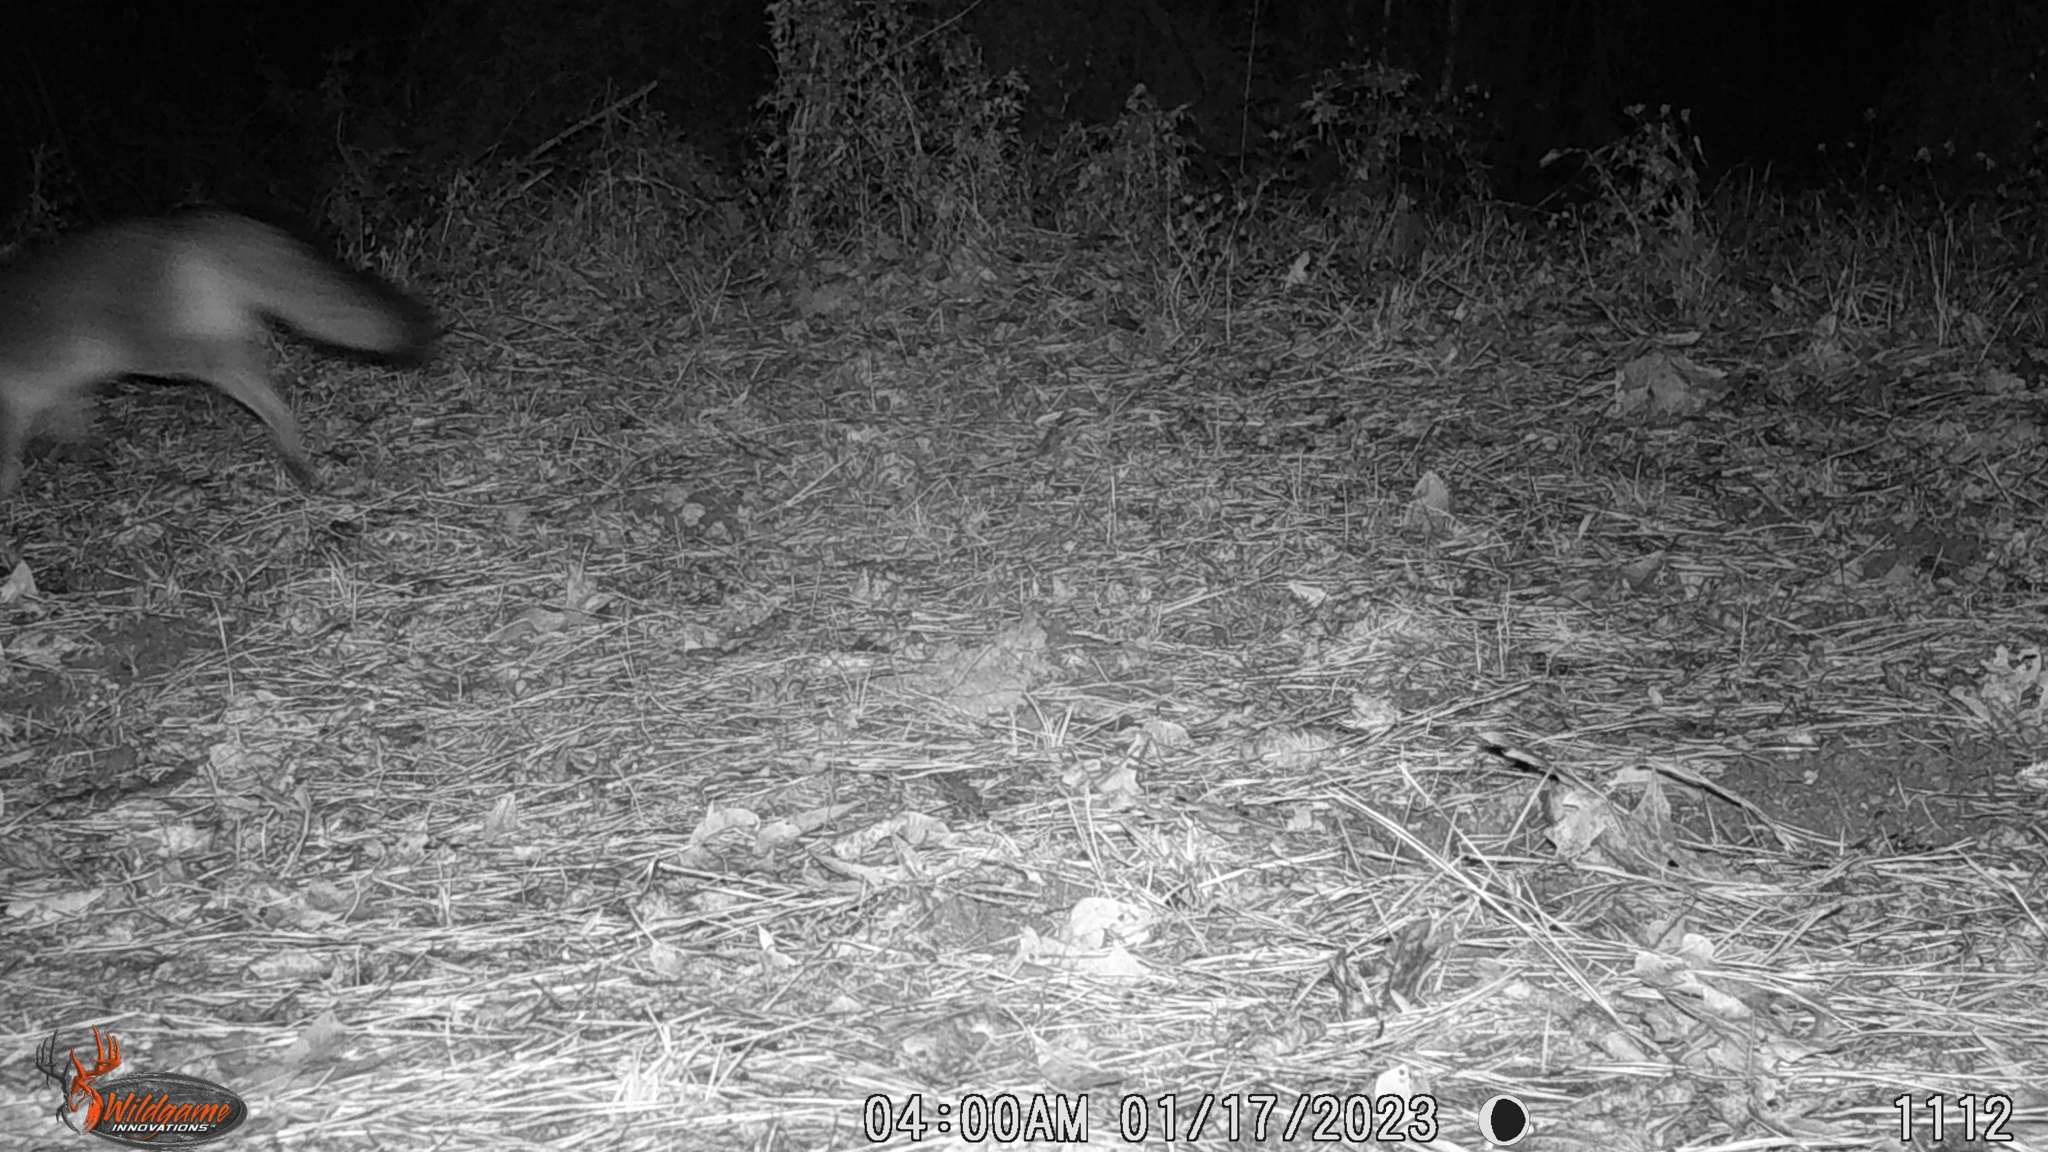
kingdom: Animalia
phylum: Chordata
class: Mammalia
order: Carnivora
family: Canidae
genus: Urocyon
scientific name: Urocyon cinereoargenteus
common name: Gray fox
